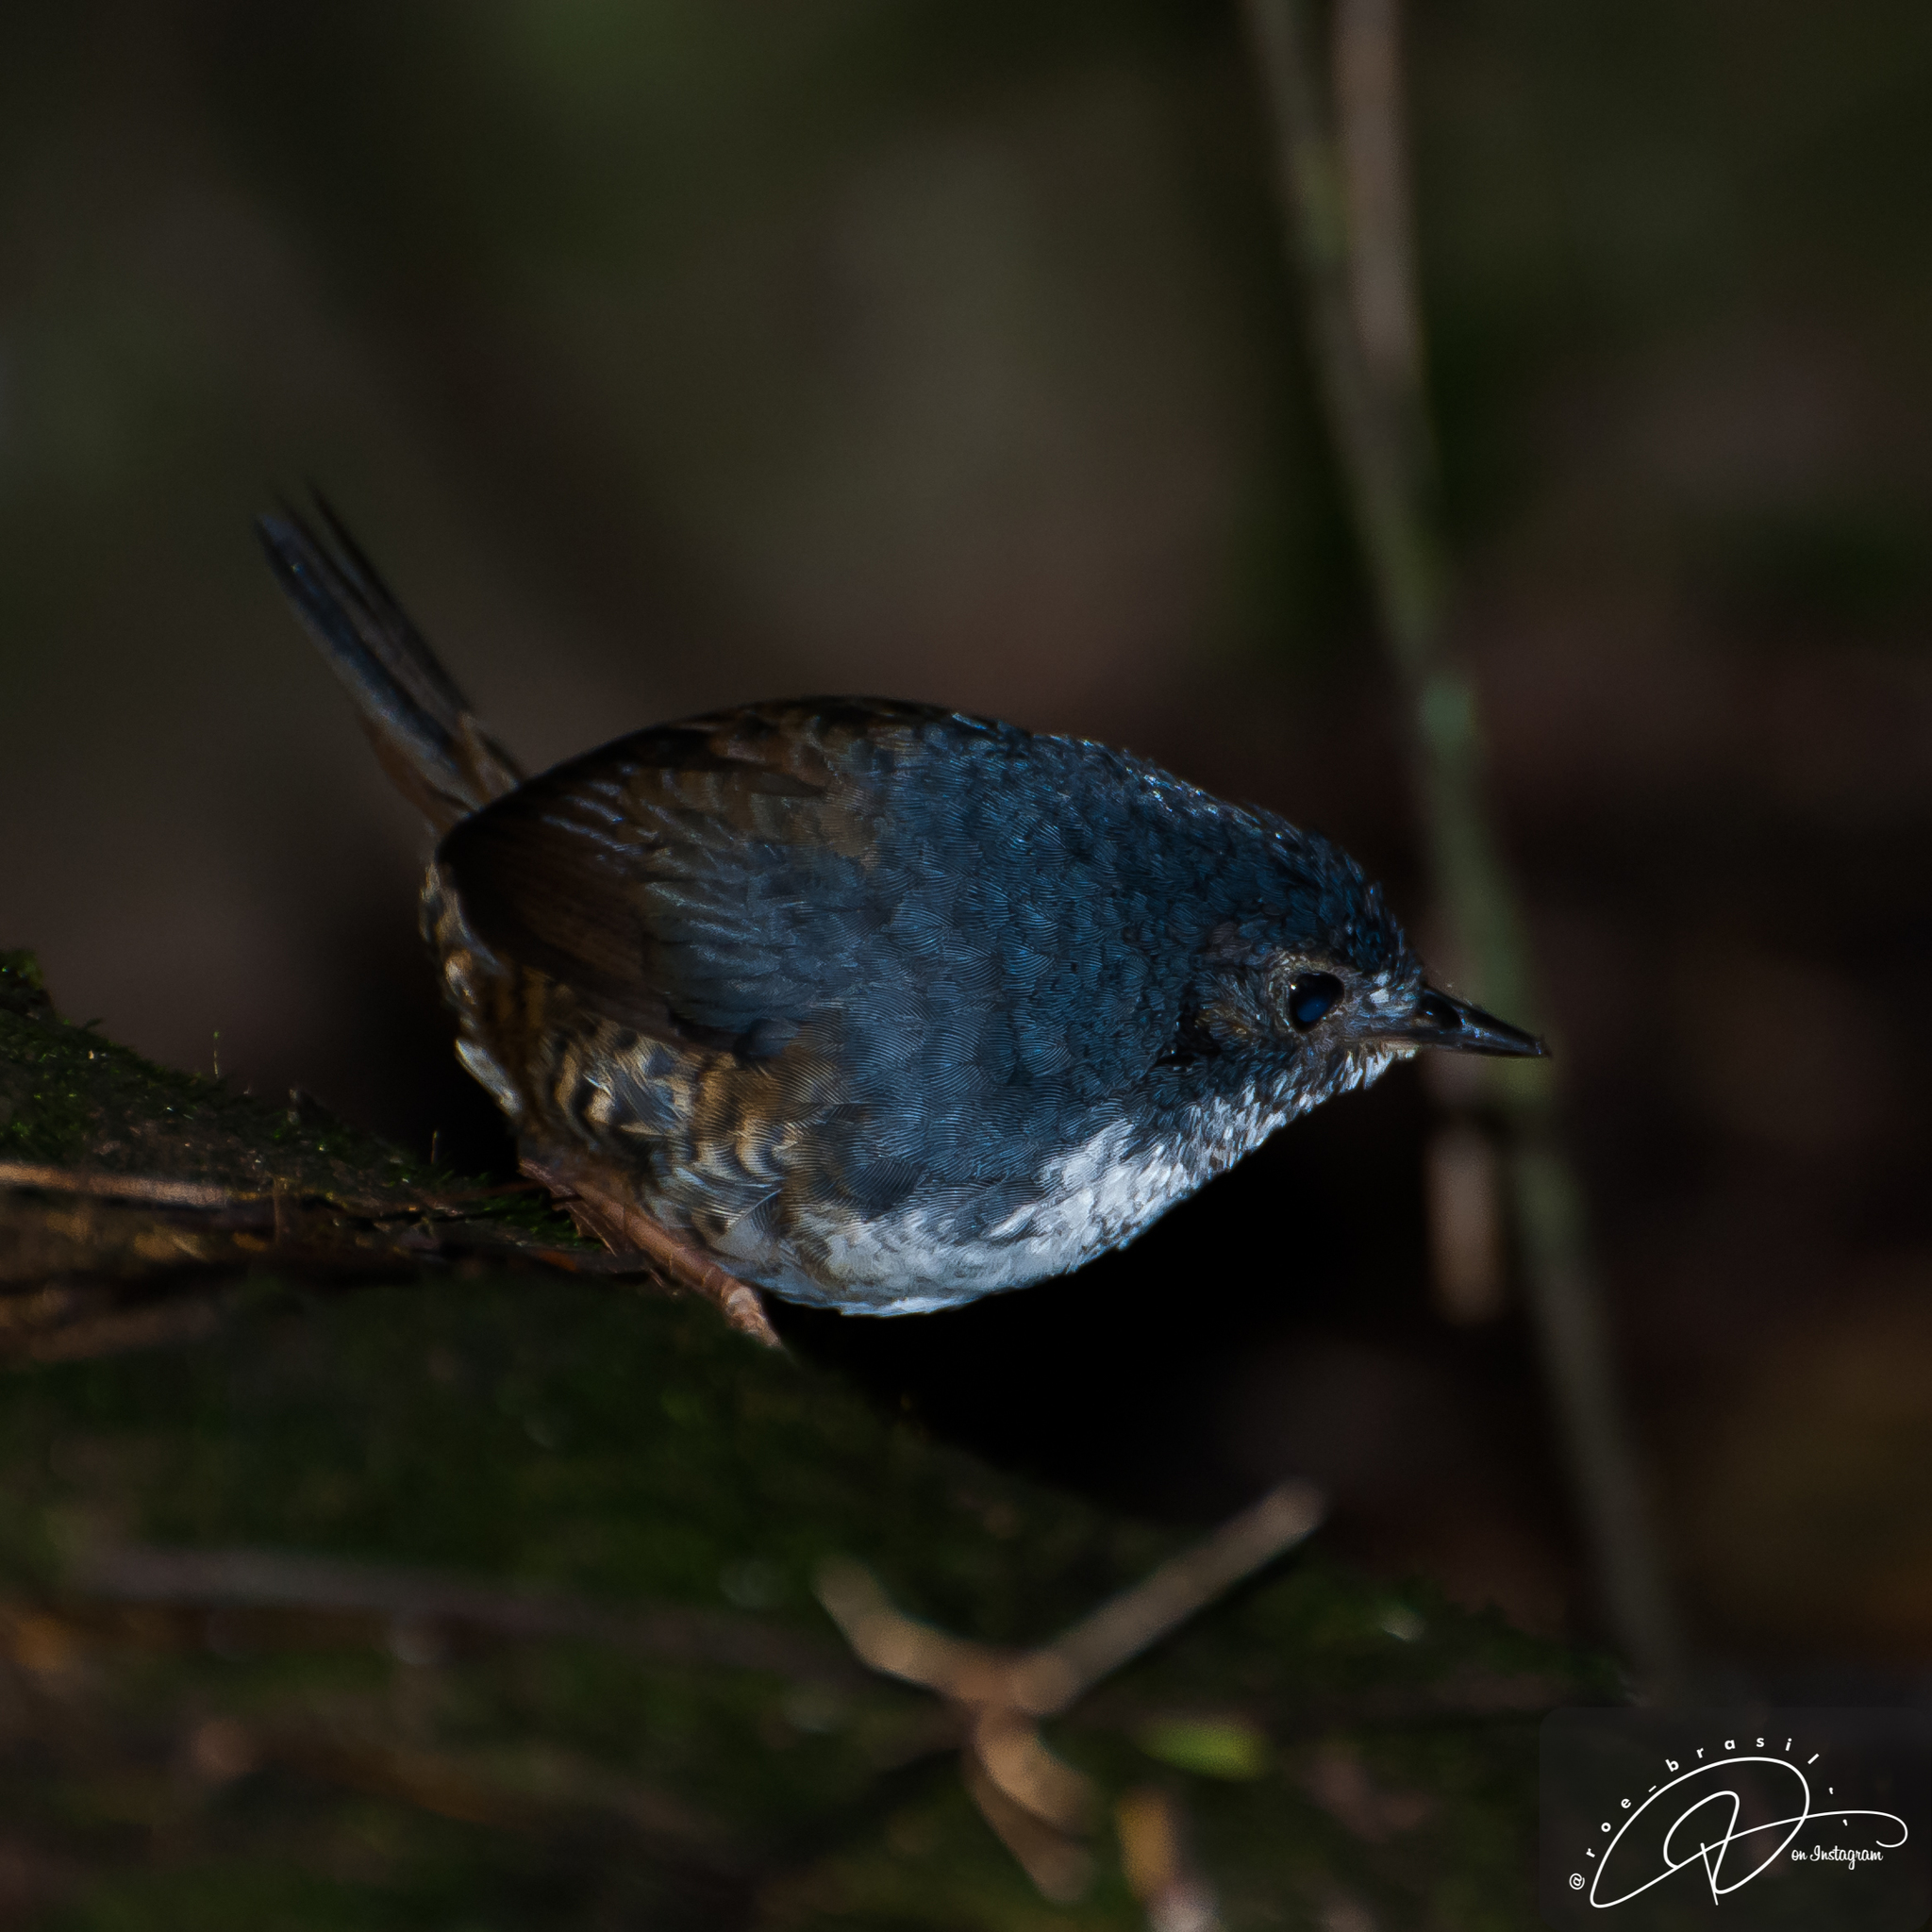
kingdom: Animalia
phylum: Chordata
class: Aves
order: Passeriformes
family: Rhinocryptidae
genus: Eleoscytalopus
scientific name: Eleoscytalopus indigoticus
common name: White-breasted tapaculo
